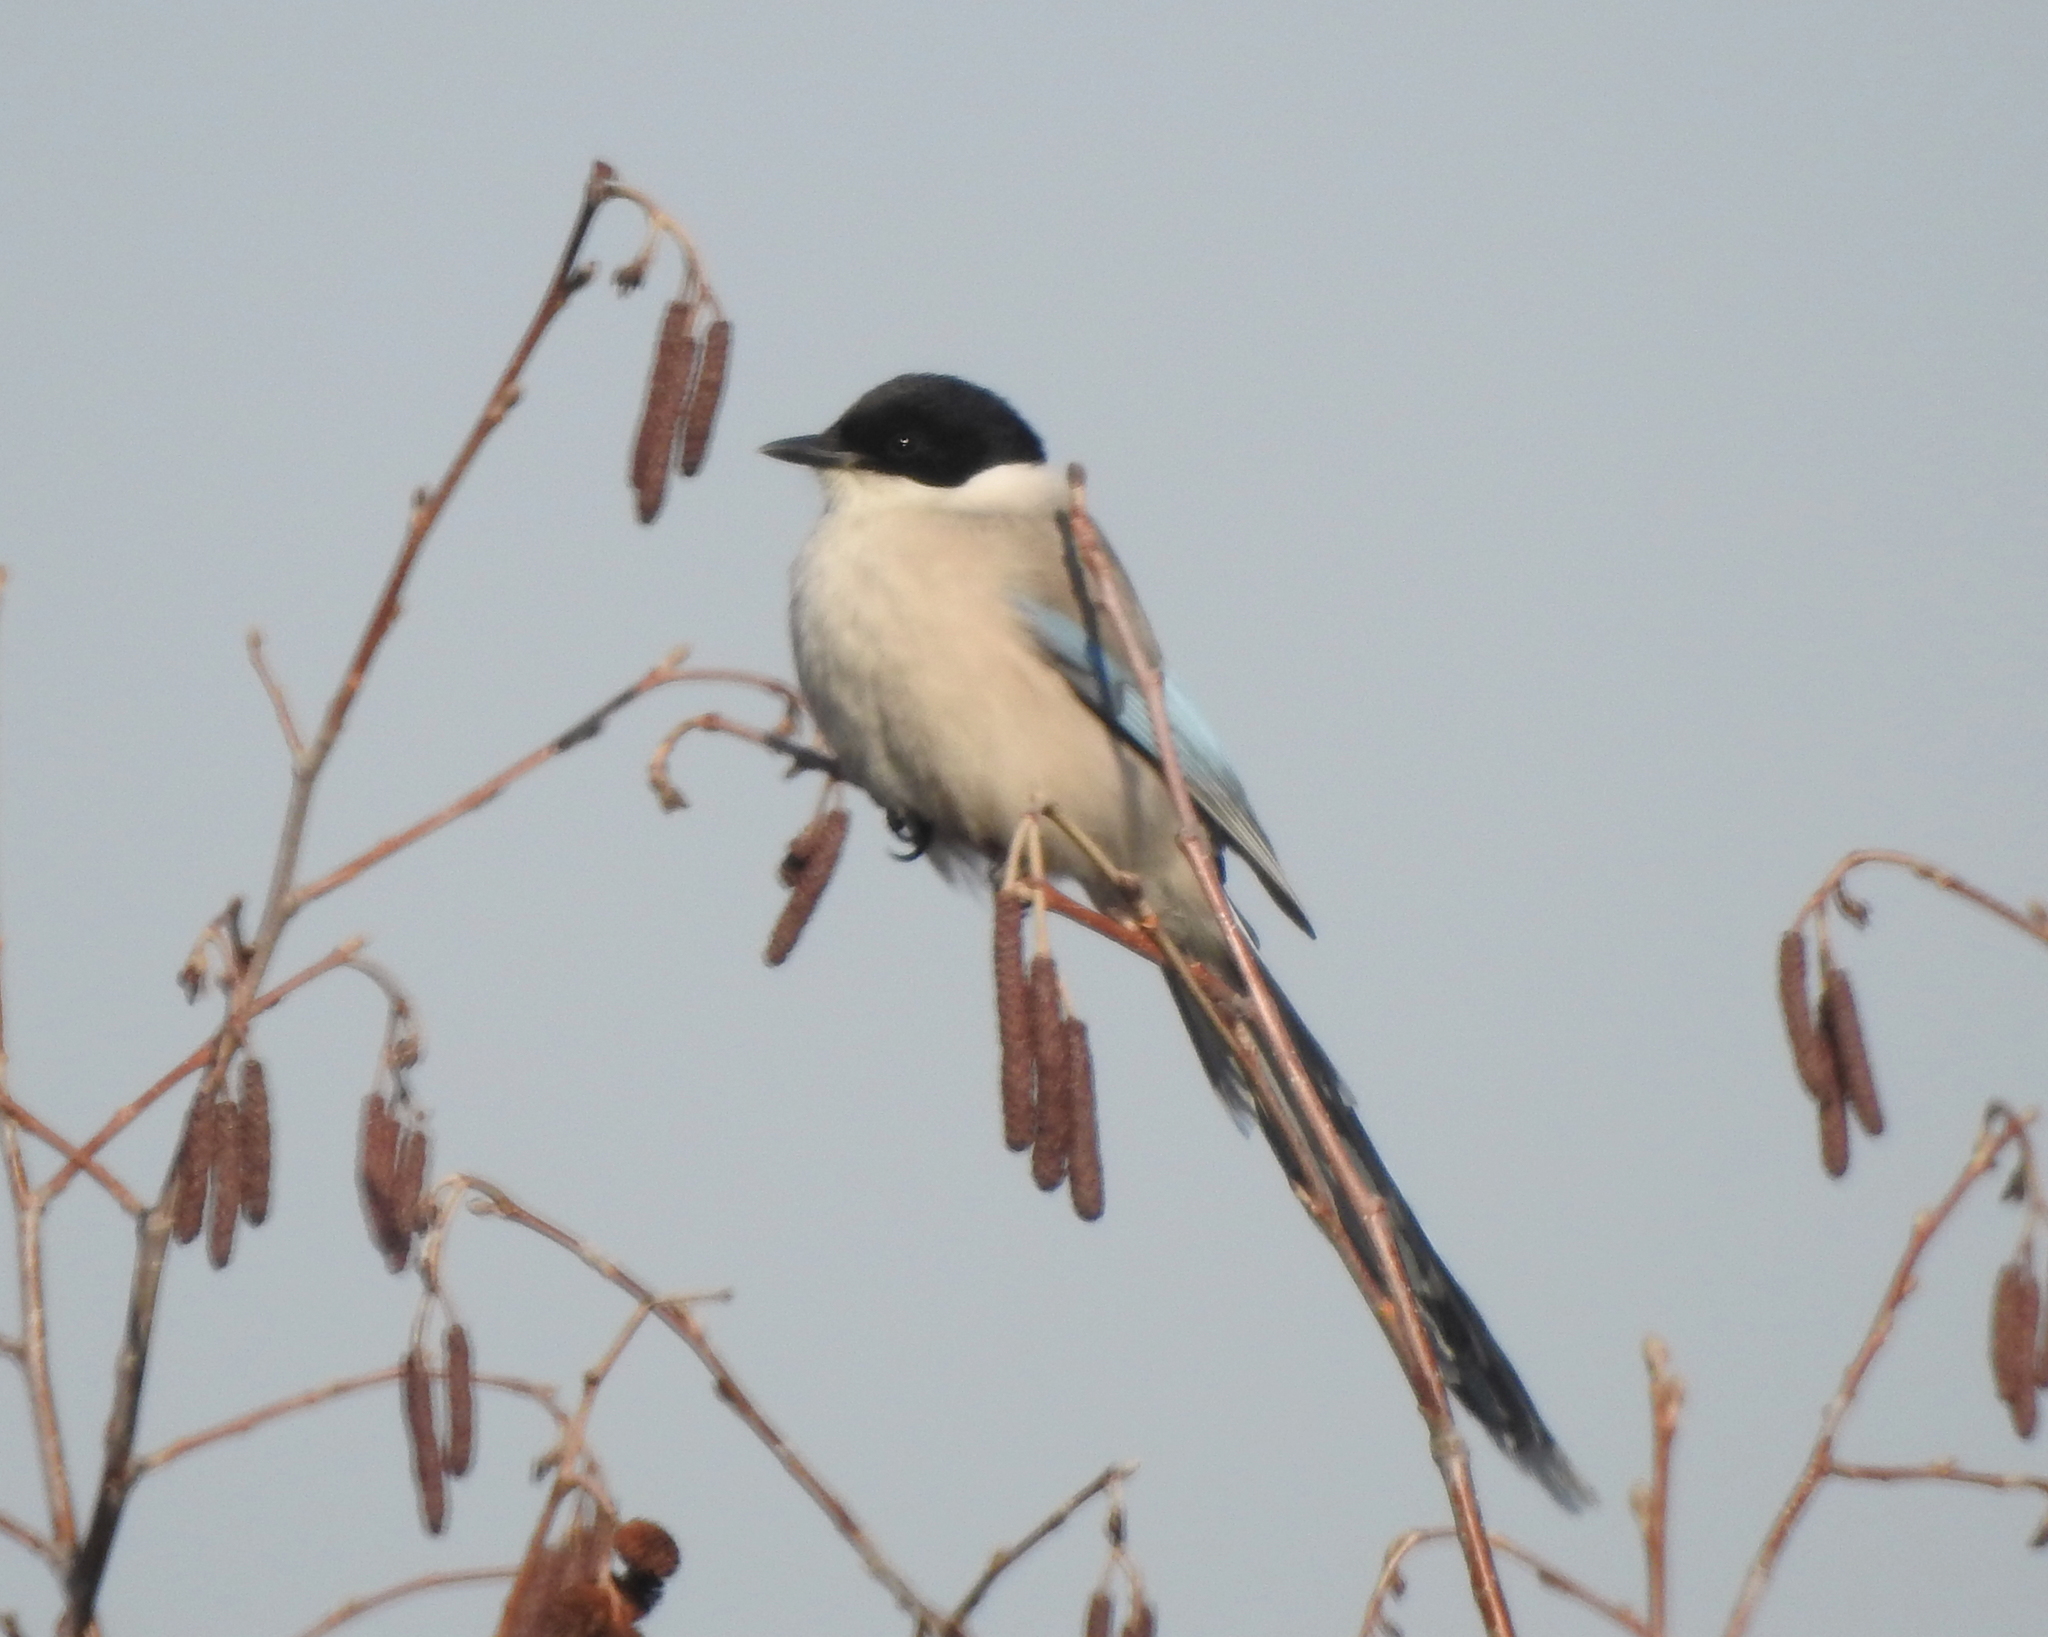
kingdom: Animalia
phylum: Chordata
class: Aves
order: Passeriformes
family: Corvidae
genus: Cyanopica
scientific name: Cyanopica cyanus
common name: Azure-winged magpie
